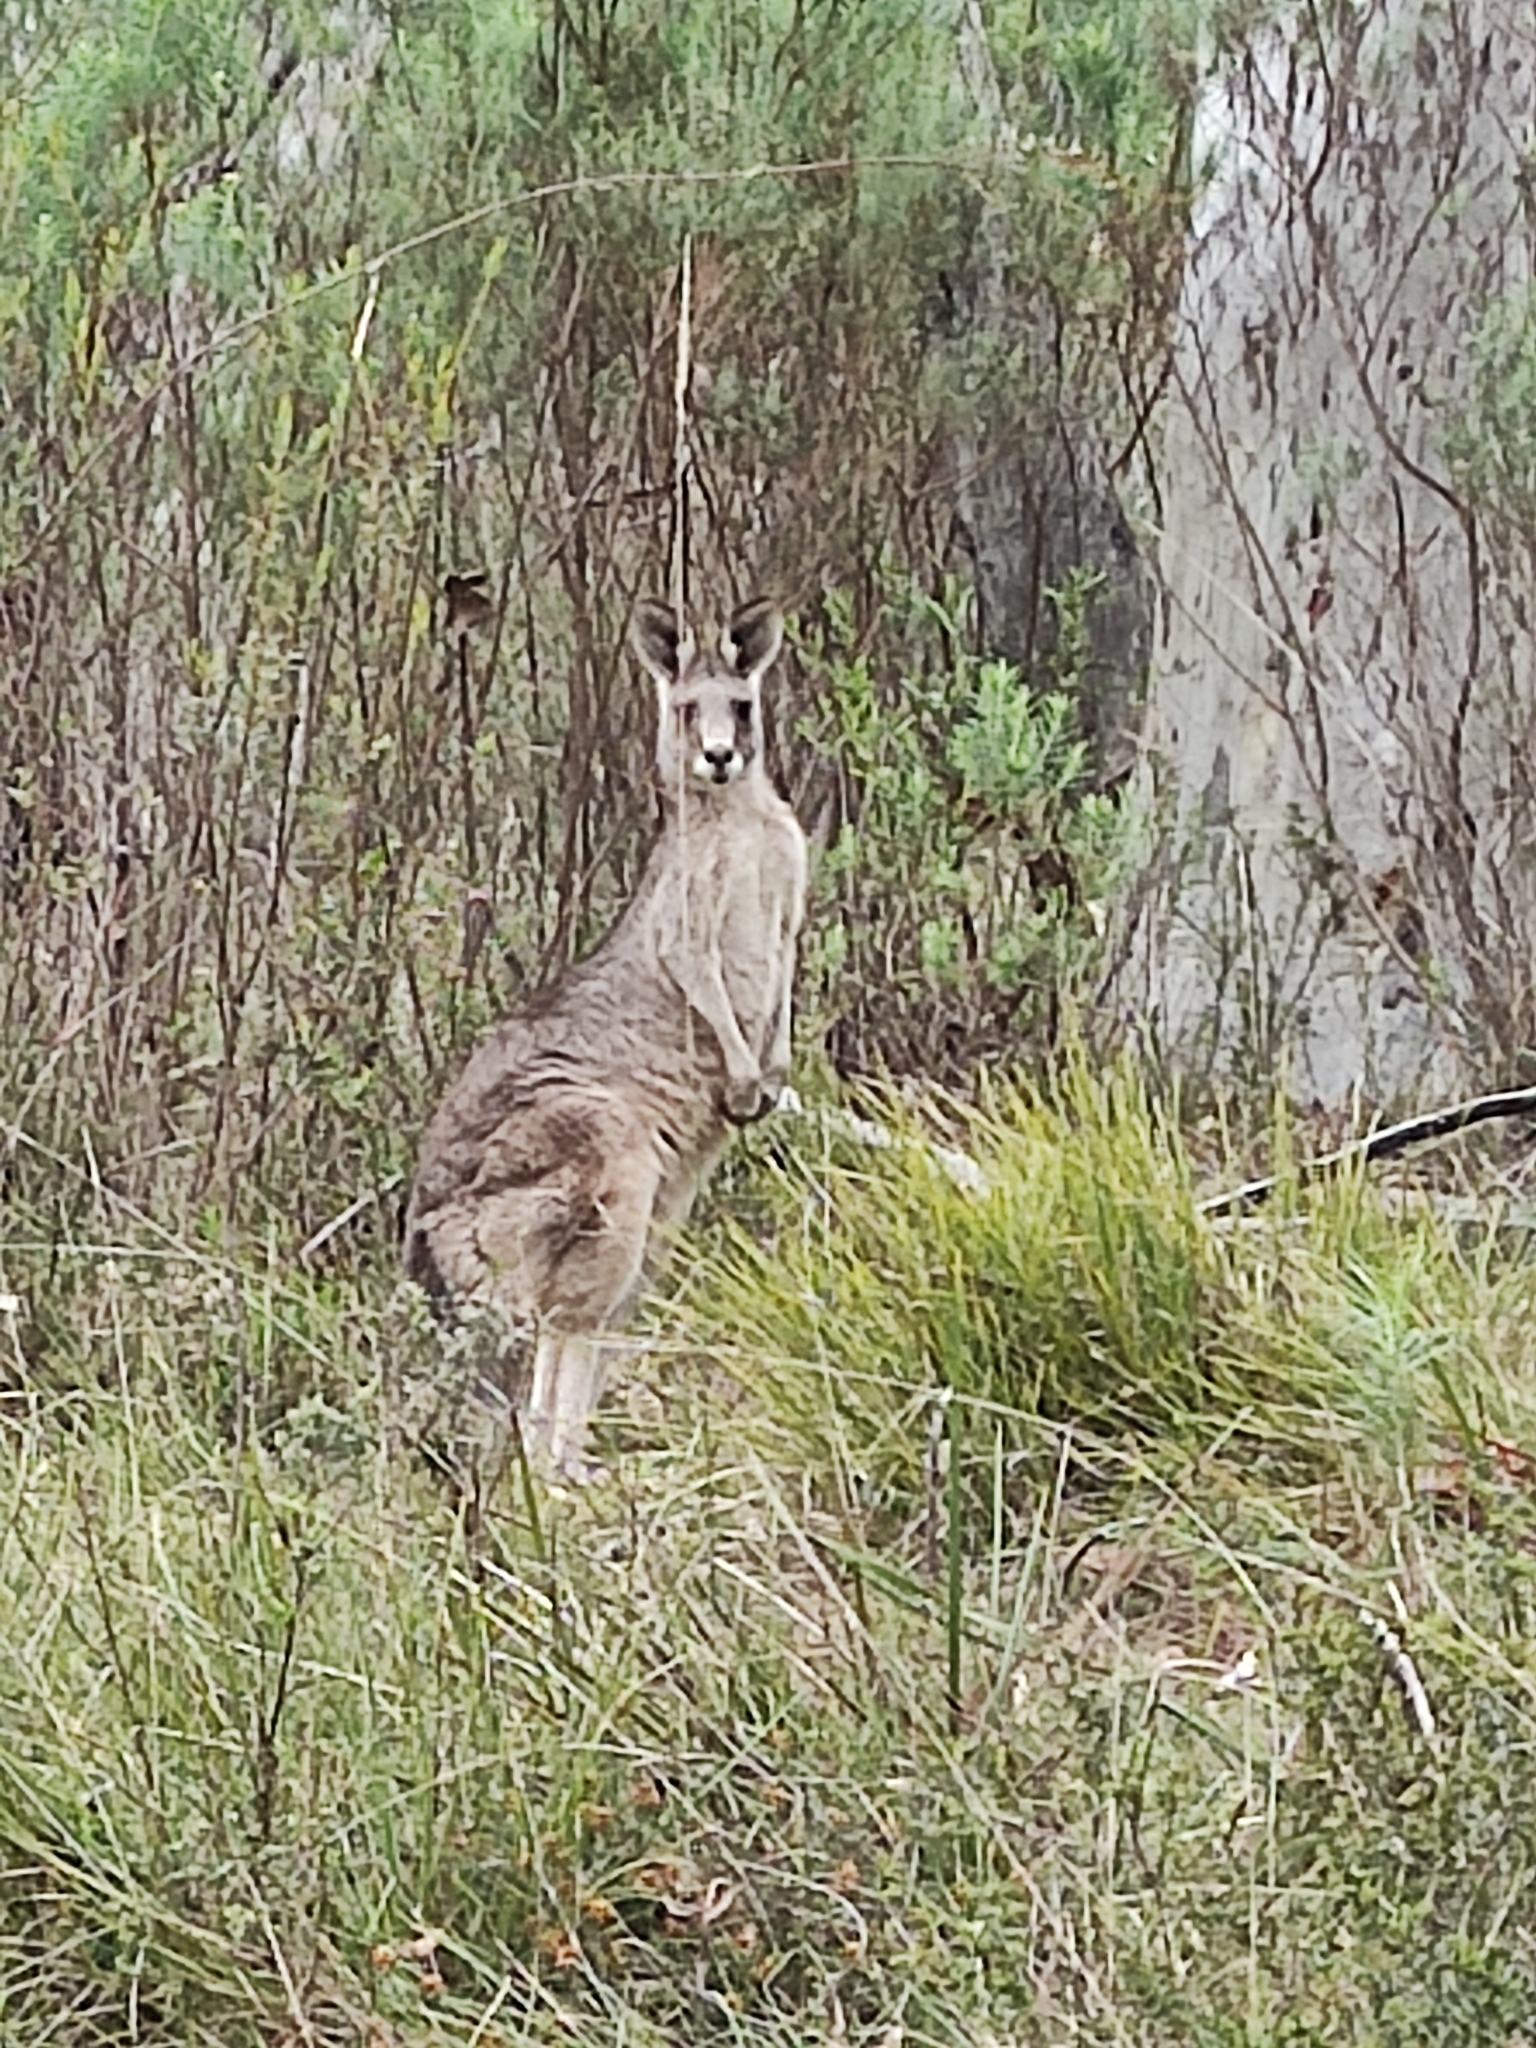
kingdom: Animalia
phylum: Chordata
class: Mammalia
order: Diprotodontia
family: Macropodidae
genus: Macropus
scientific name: Macropus giganteus
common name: Eastern grey kangaroo
